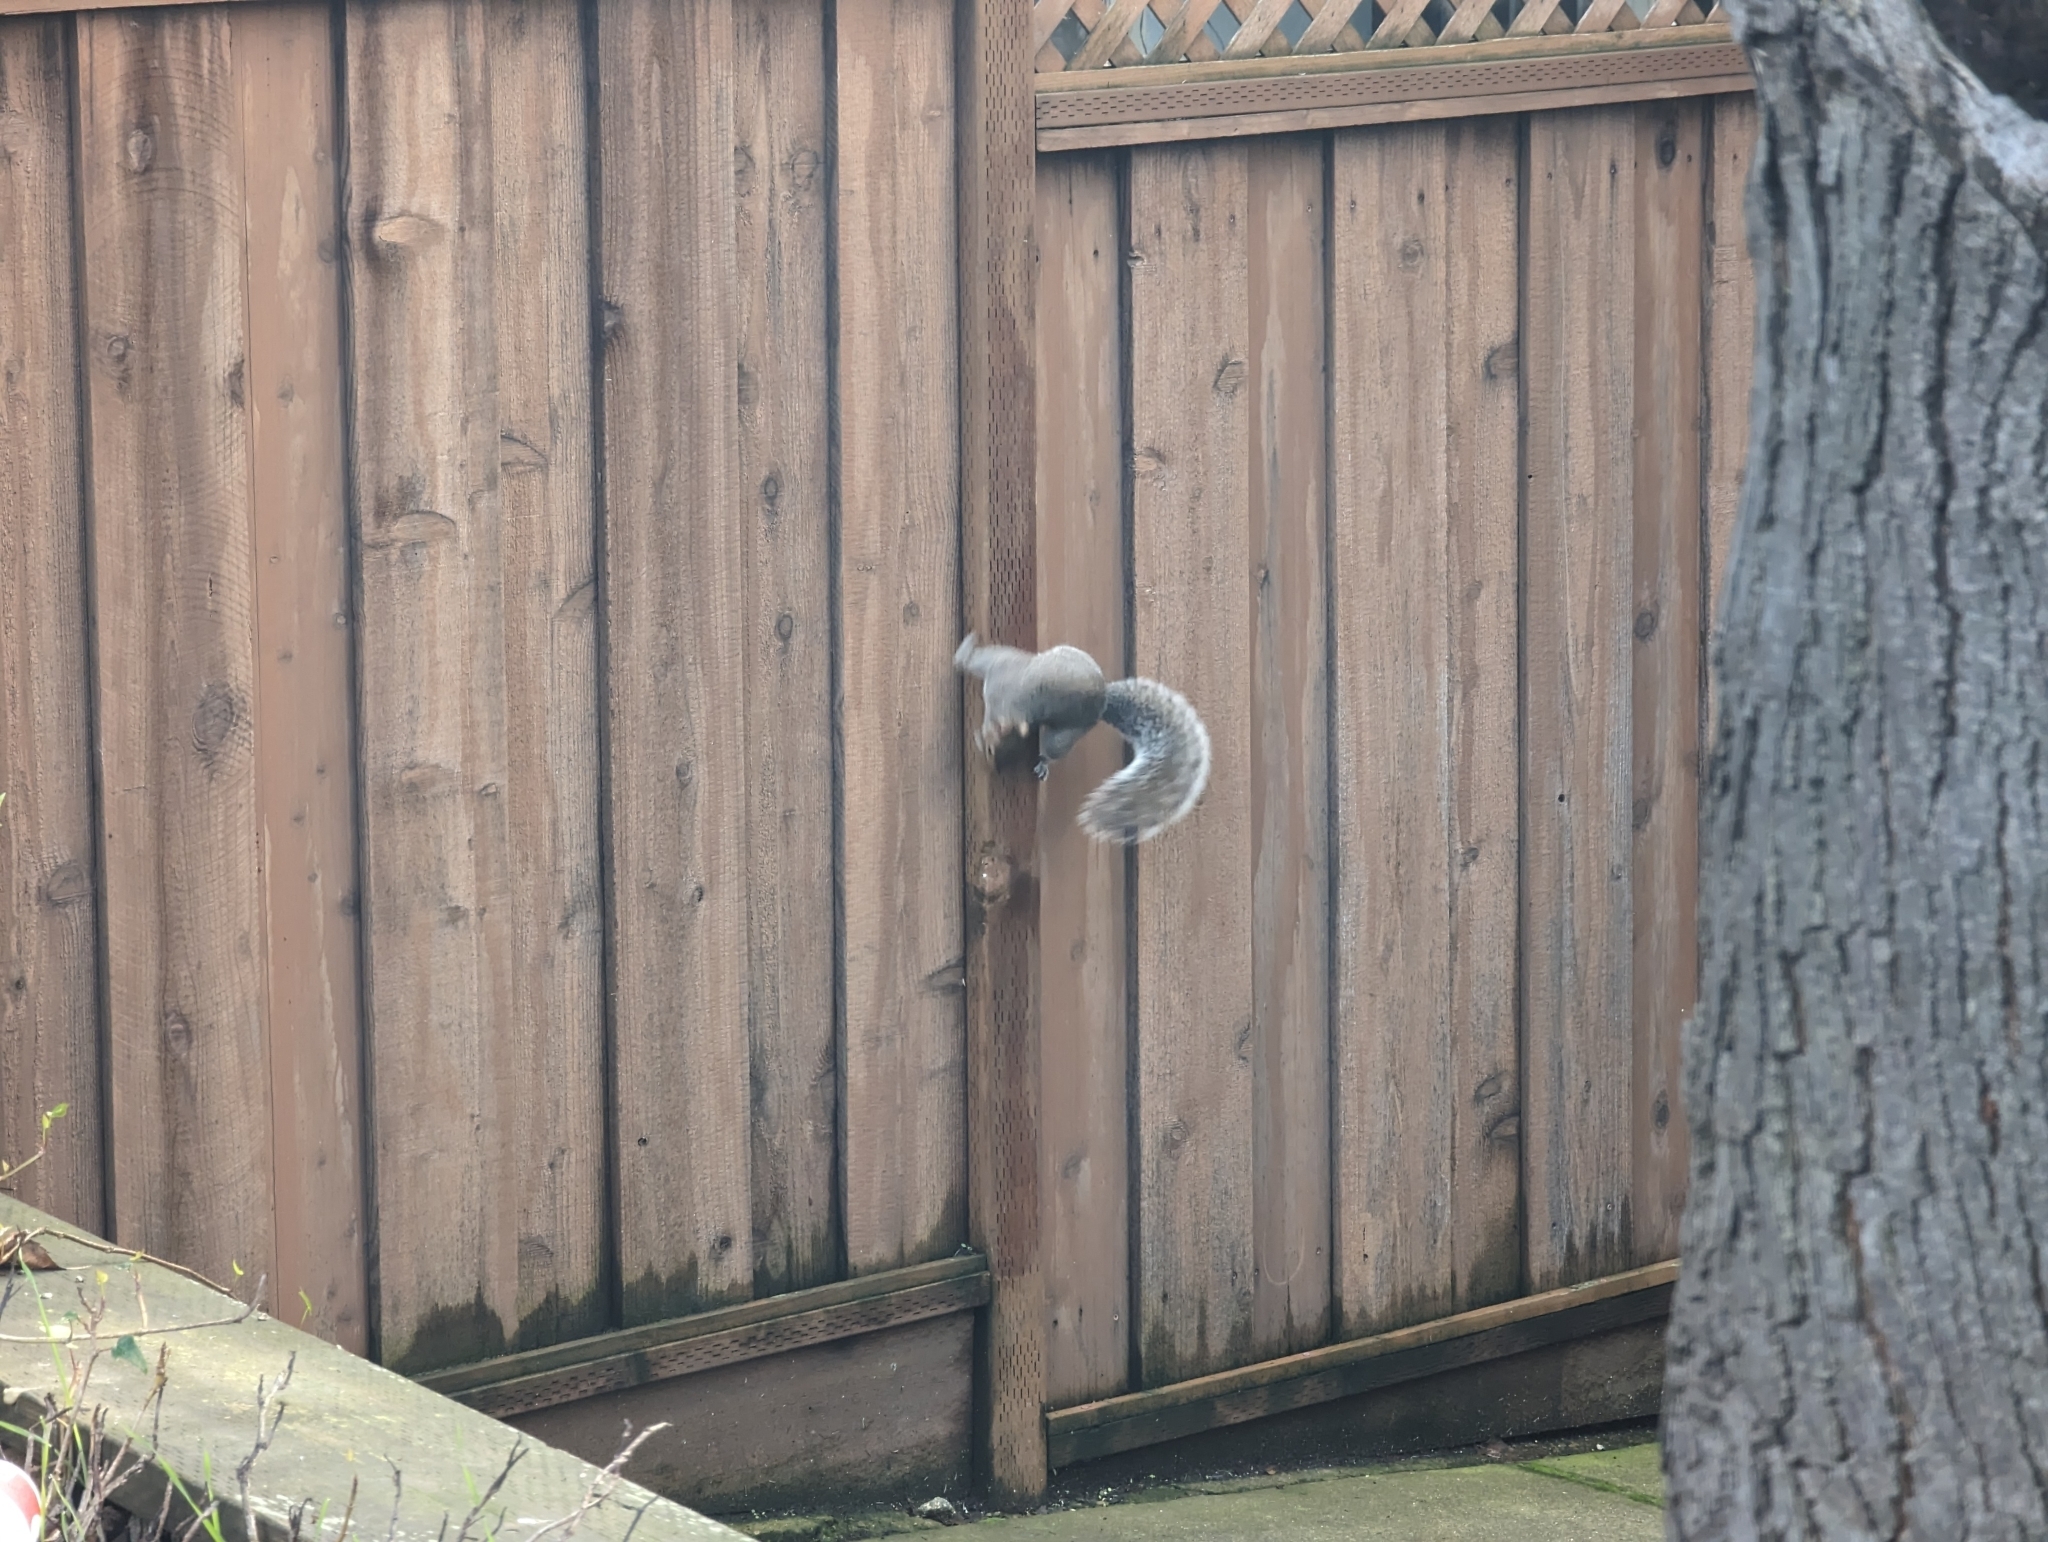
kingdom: Animalia
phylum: Chordata
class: Mammalia
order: Rodentia
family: Sciuridae
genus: Sciurus
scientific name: Sciurus carolinensis
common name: Eastern gray squirrel
